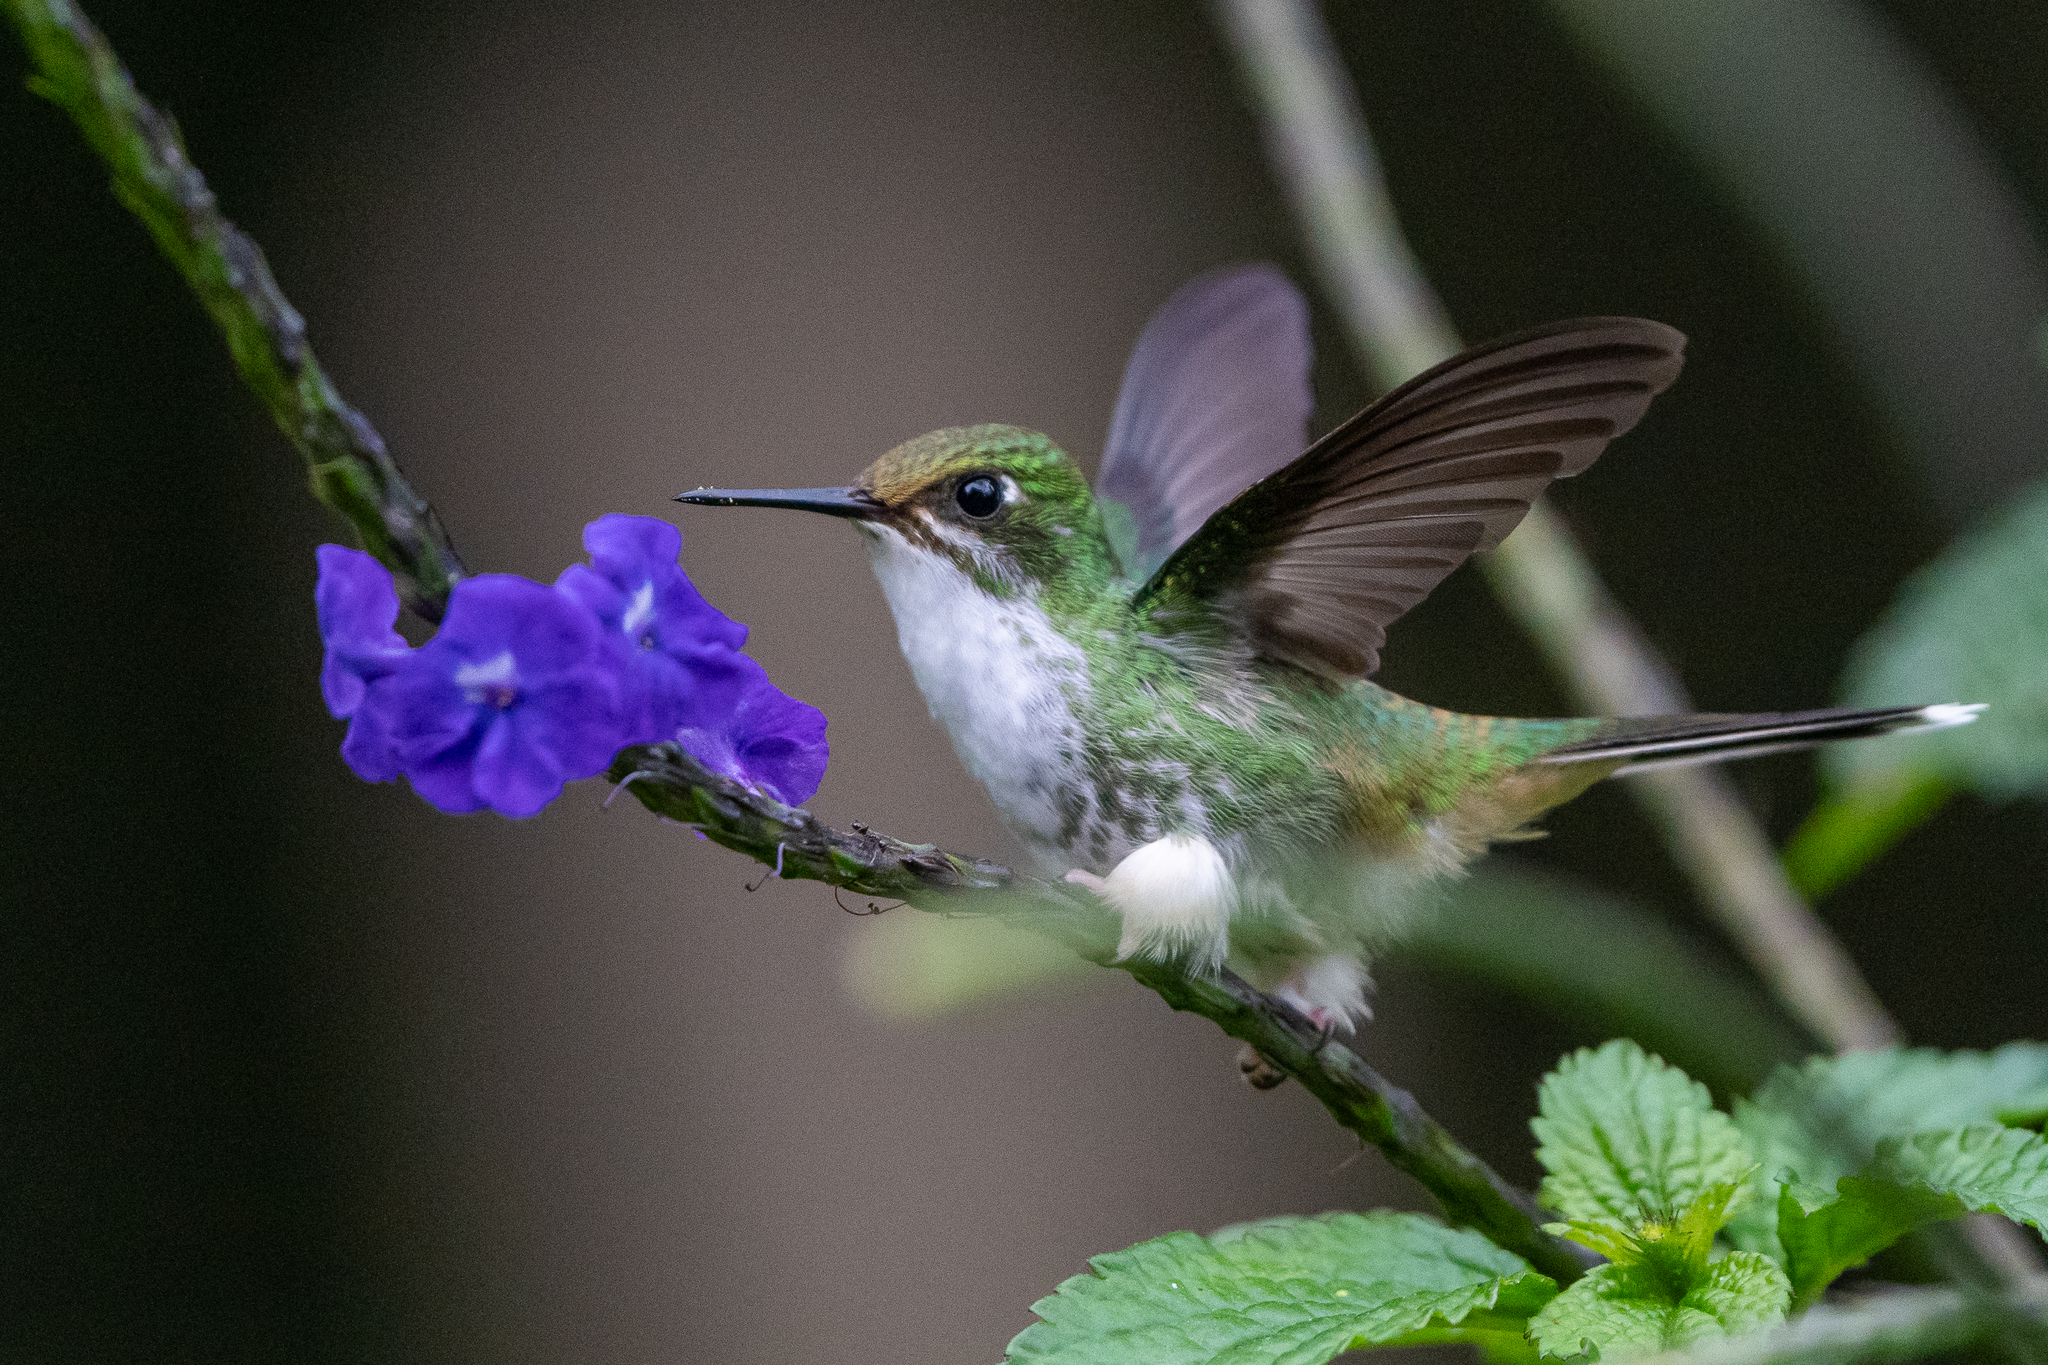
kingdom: Animalia
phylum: Chordata
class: Aves
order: Apodiformes
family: Trochilidae
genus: Ocreatus
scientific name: Ocreatus underwoodii
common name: Booted racket-tail
